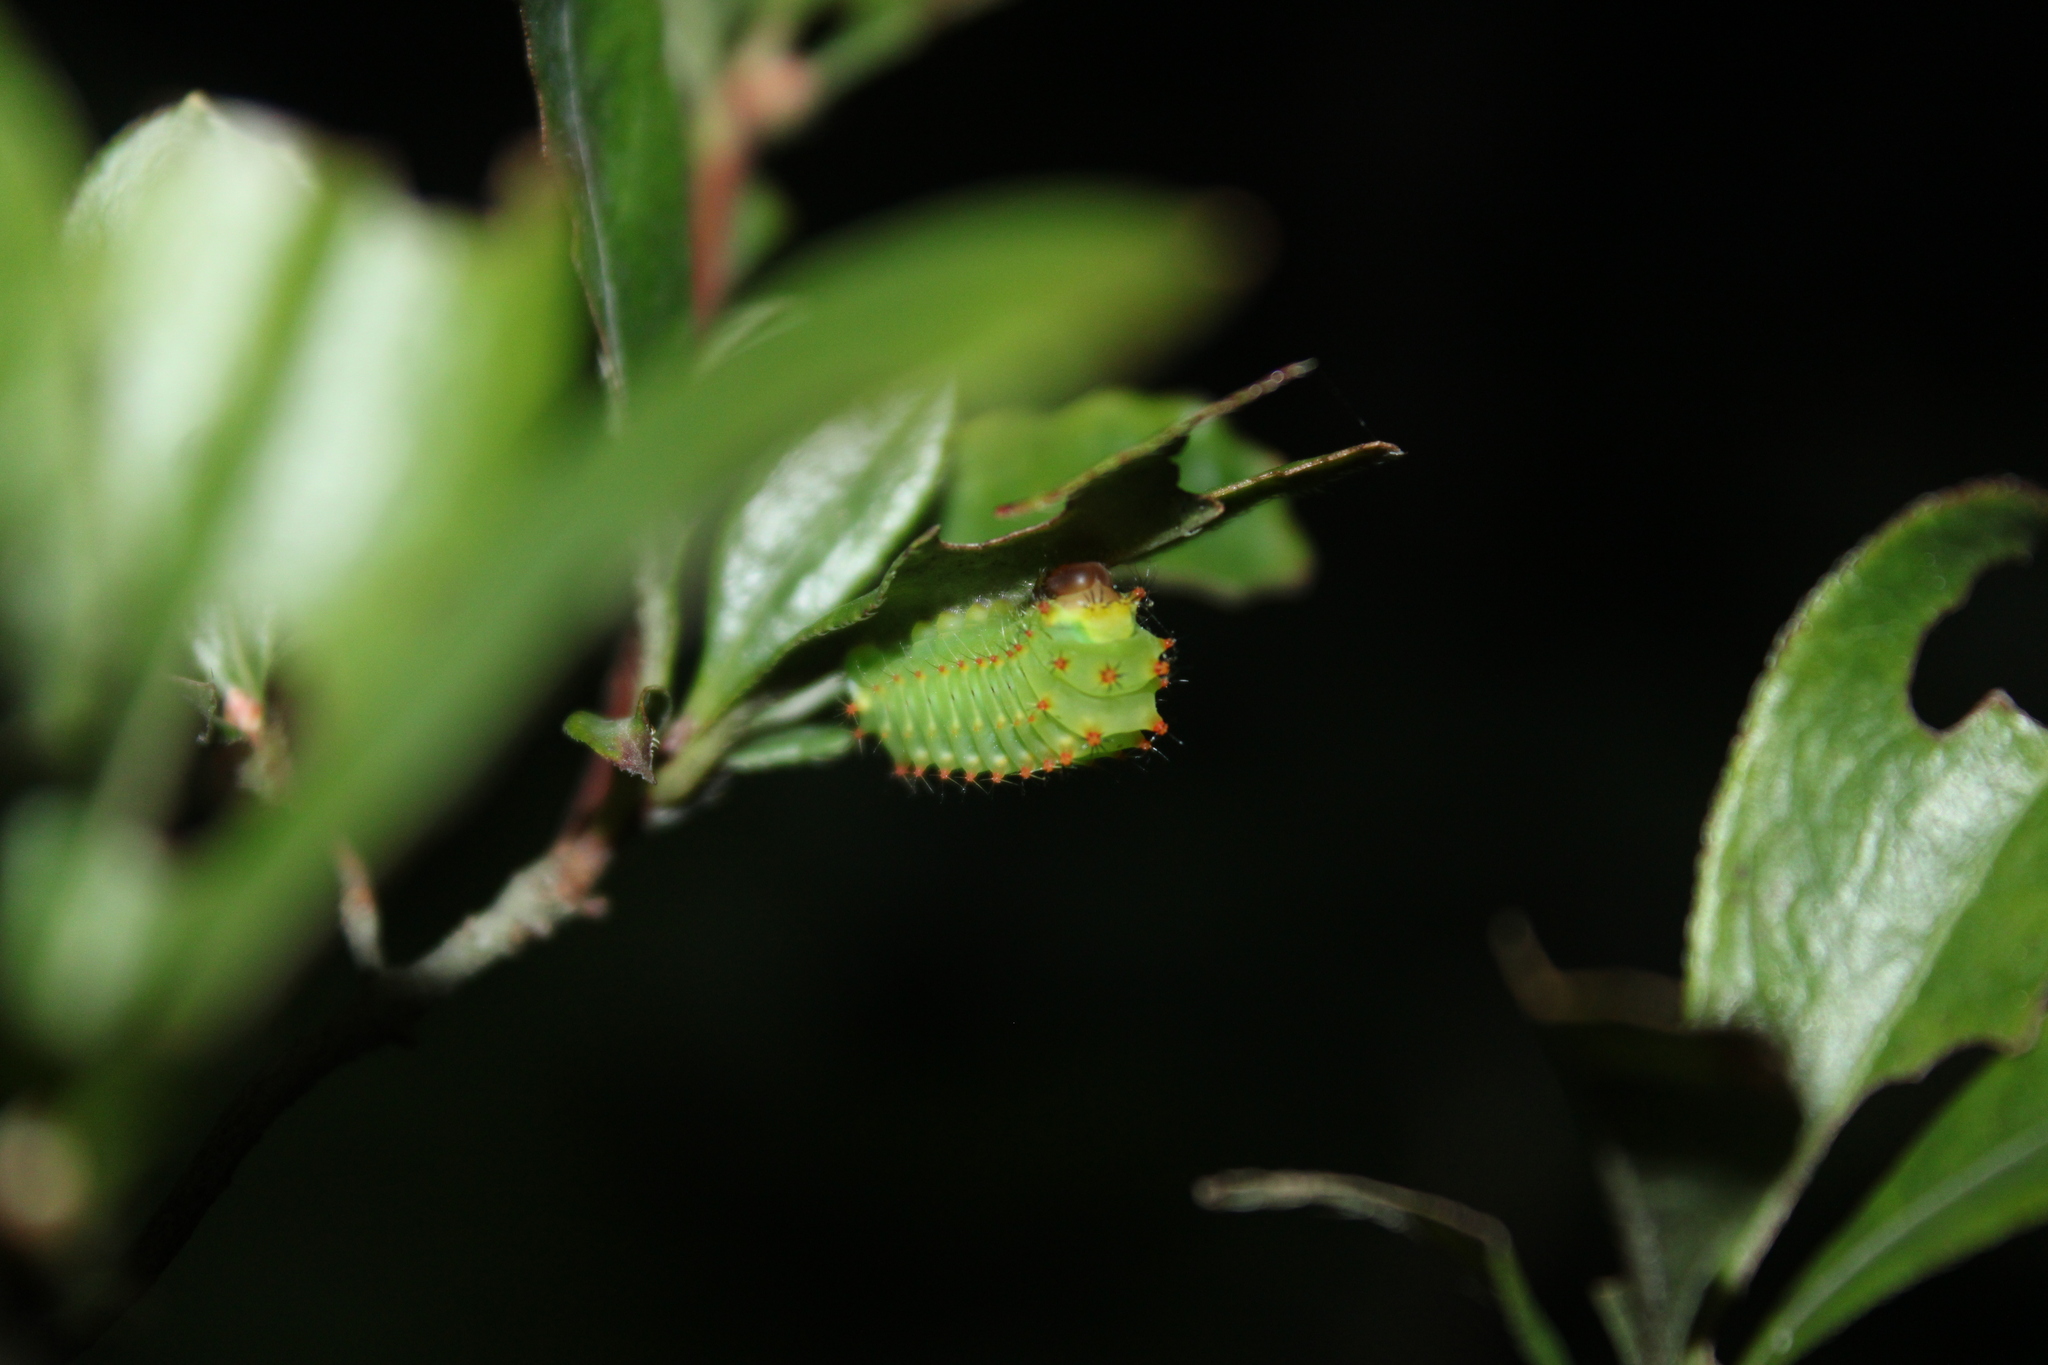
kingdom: Animalia
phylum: Arthropoda
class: Insecta
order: Lepidoptera
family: Saturniidae
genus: Antheraea
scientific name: Antheraea polyphemus
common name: Polyphemus moth
